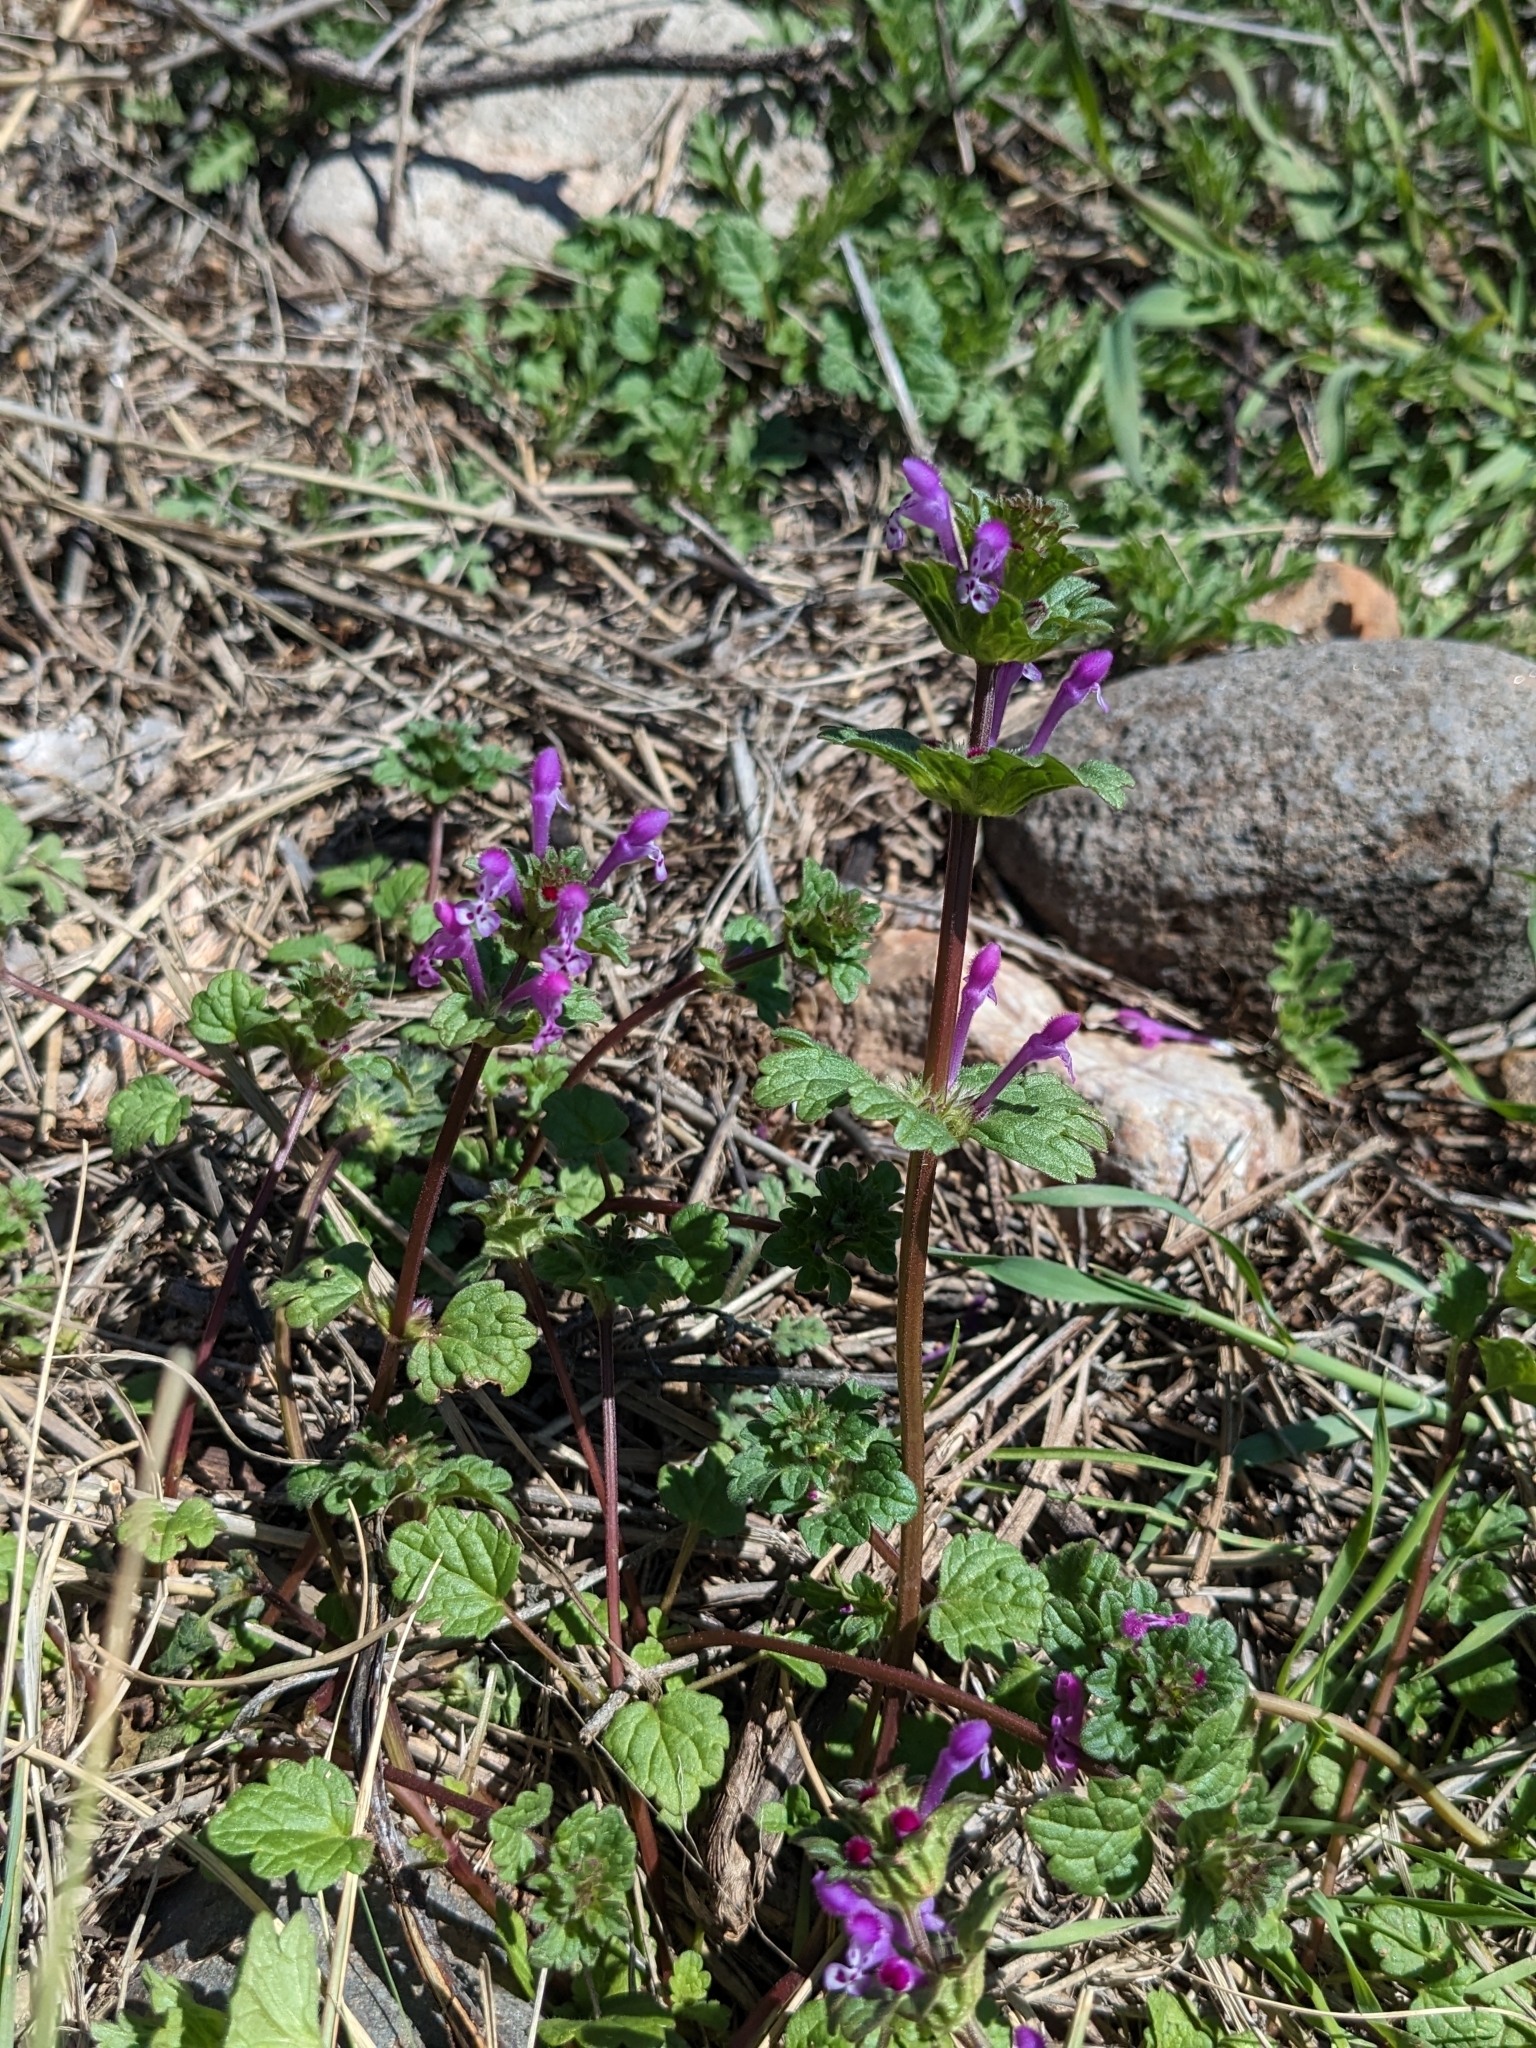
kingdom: Plantae
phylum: Tracheophyta
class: Magnoliopsida
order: Lamiales
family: Lamiaceae
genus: Lamium
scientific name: Lamium amplexicaule
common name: Henbit dead-nettle
